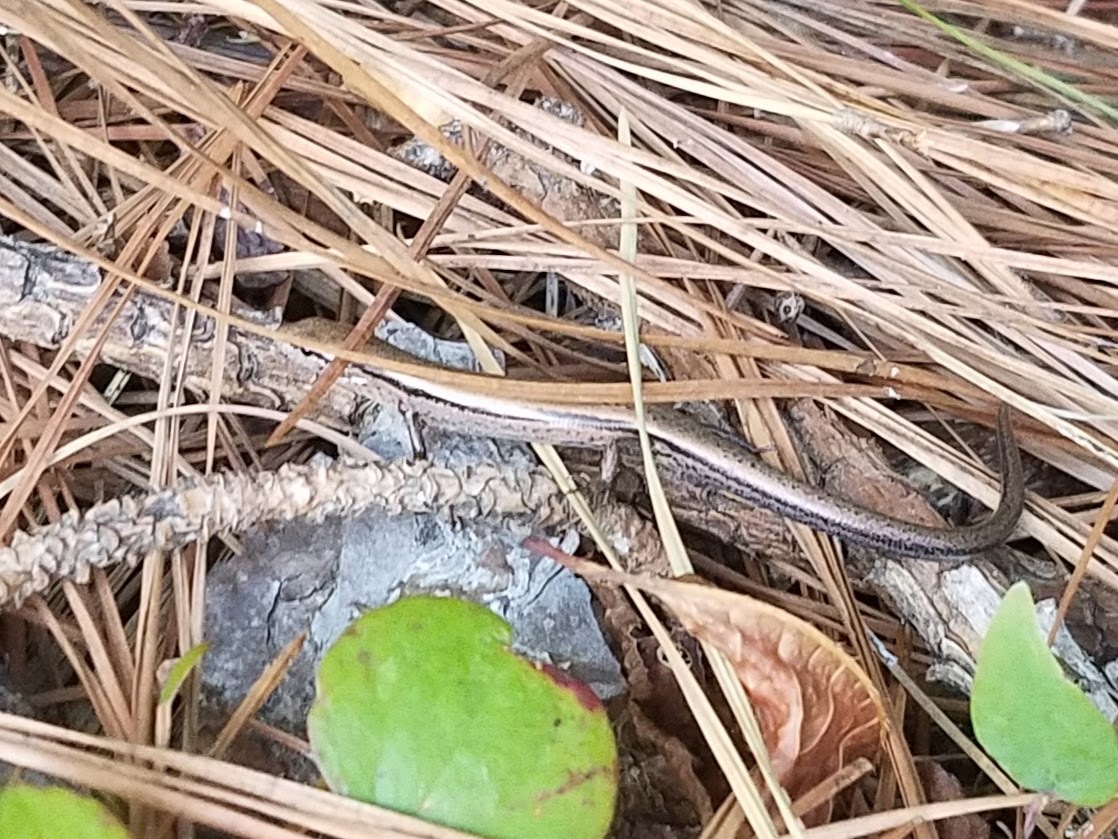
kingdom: Animalia
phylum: Chordata
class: Squamata
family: Scincidae
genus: Scincella
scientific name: Scincella lateralis
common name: Ground skink
